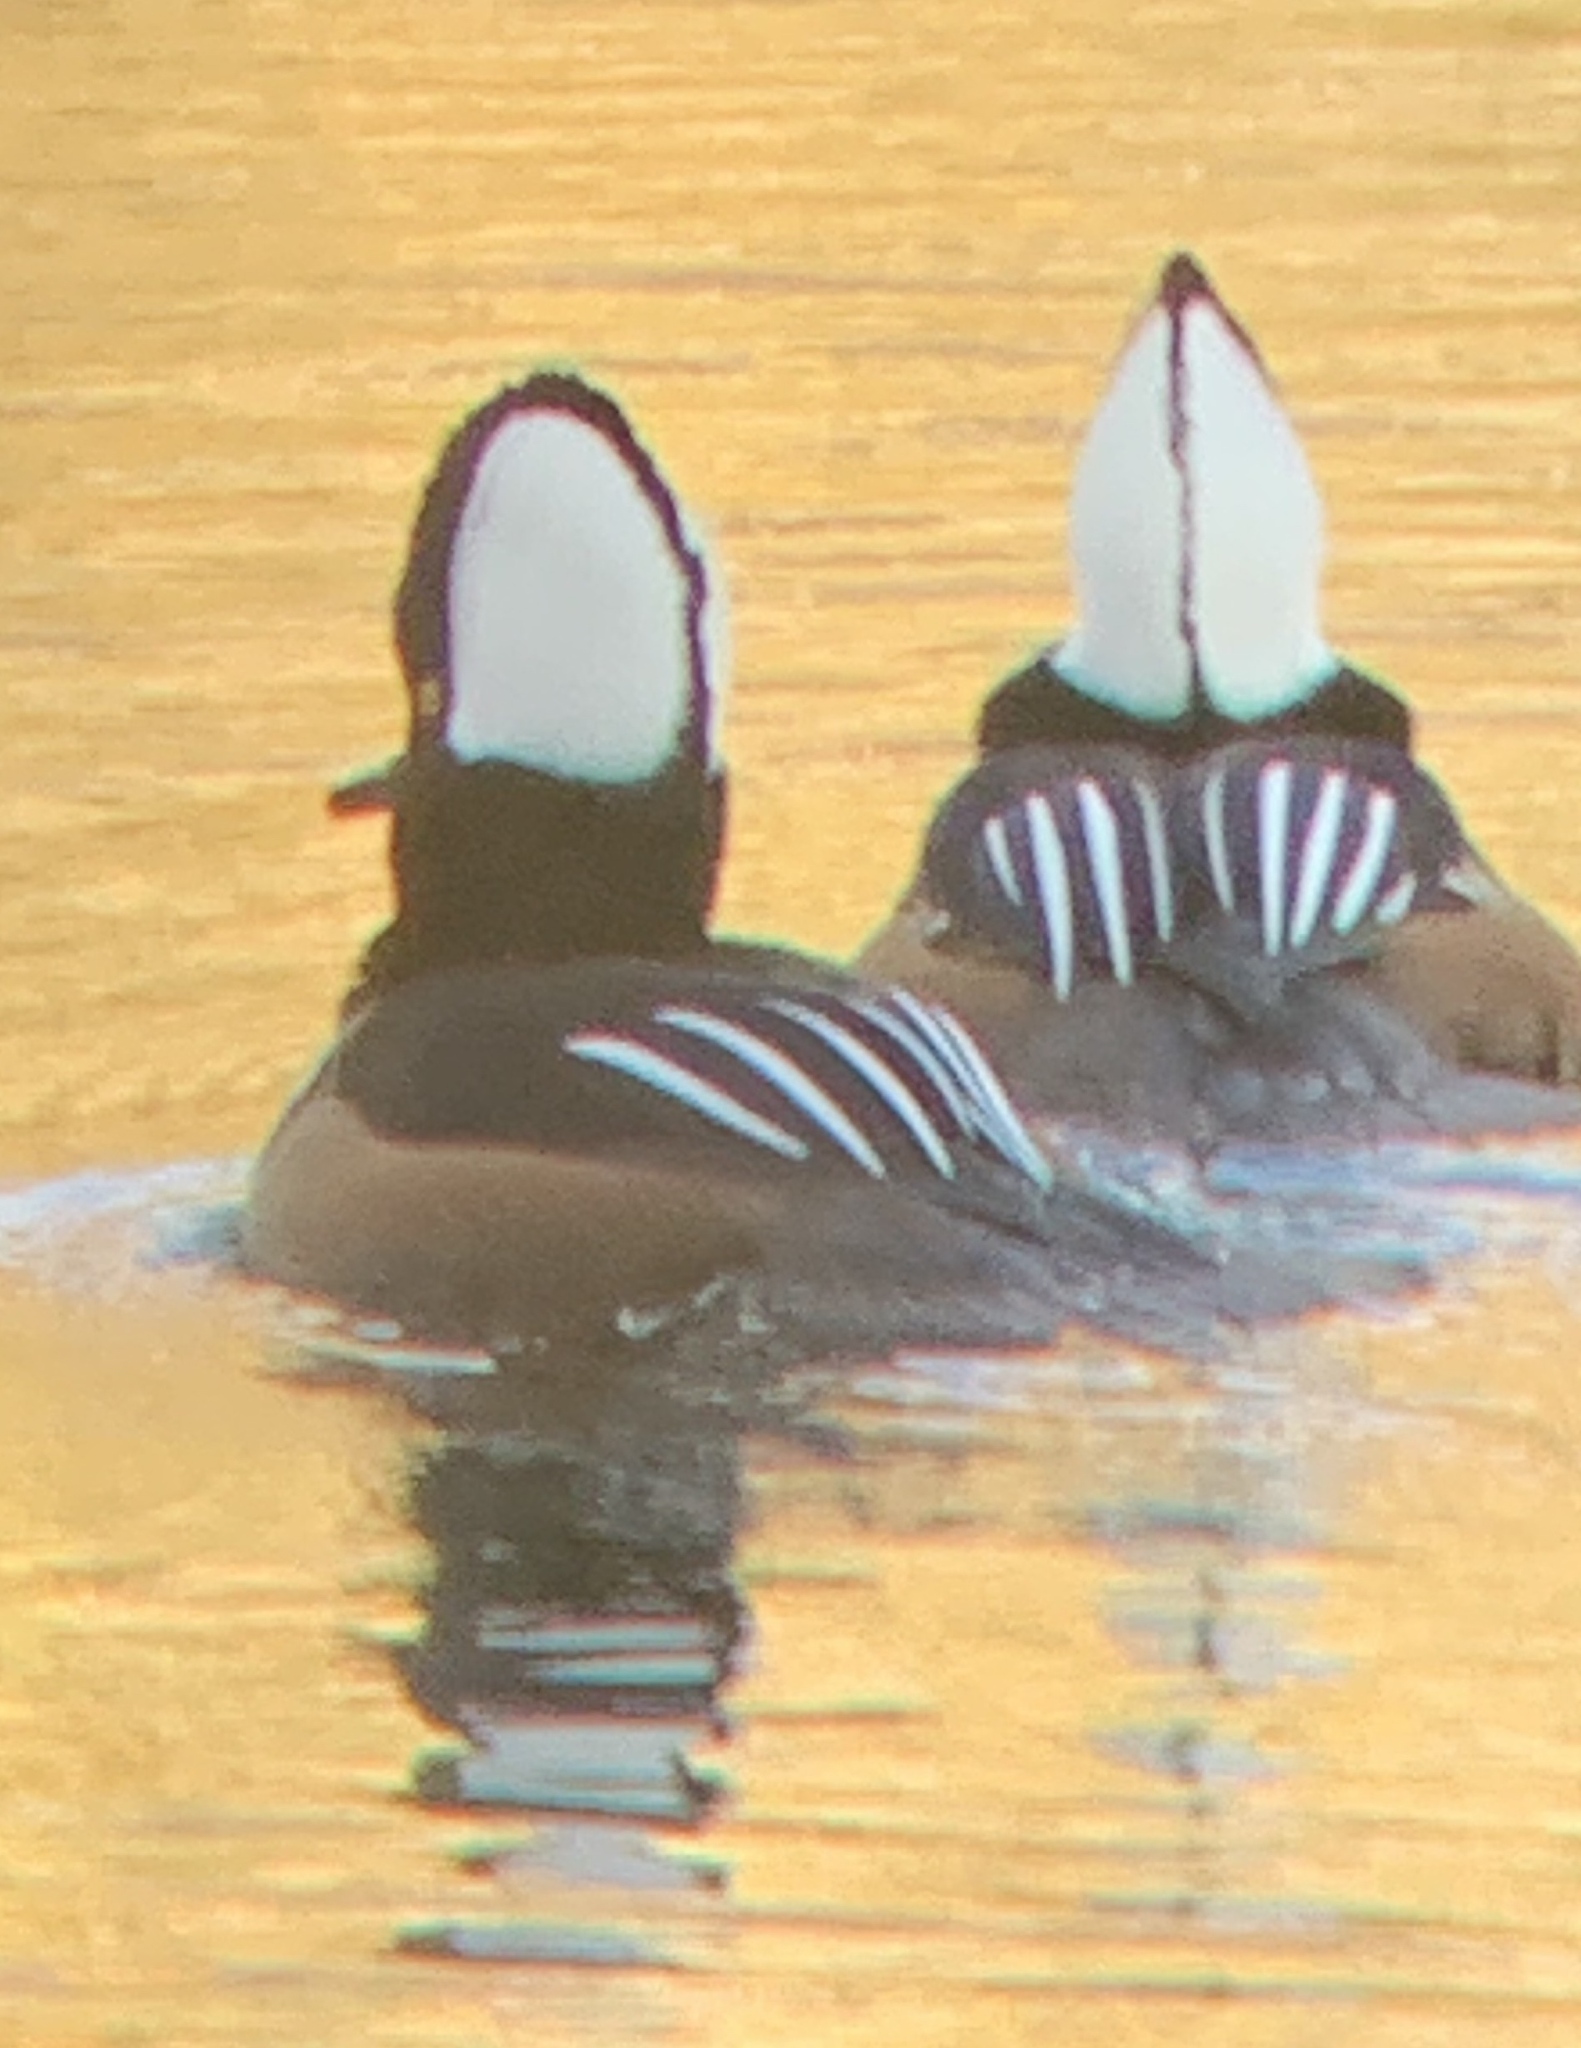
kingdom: Animalia
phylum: Chordata
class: Aves
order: Anseriformes
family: Anatidae
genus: Lophodytes
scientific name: Lophodytes cucullatus
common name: Hooded merganser
